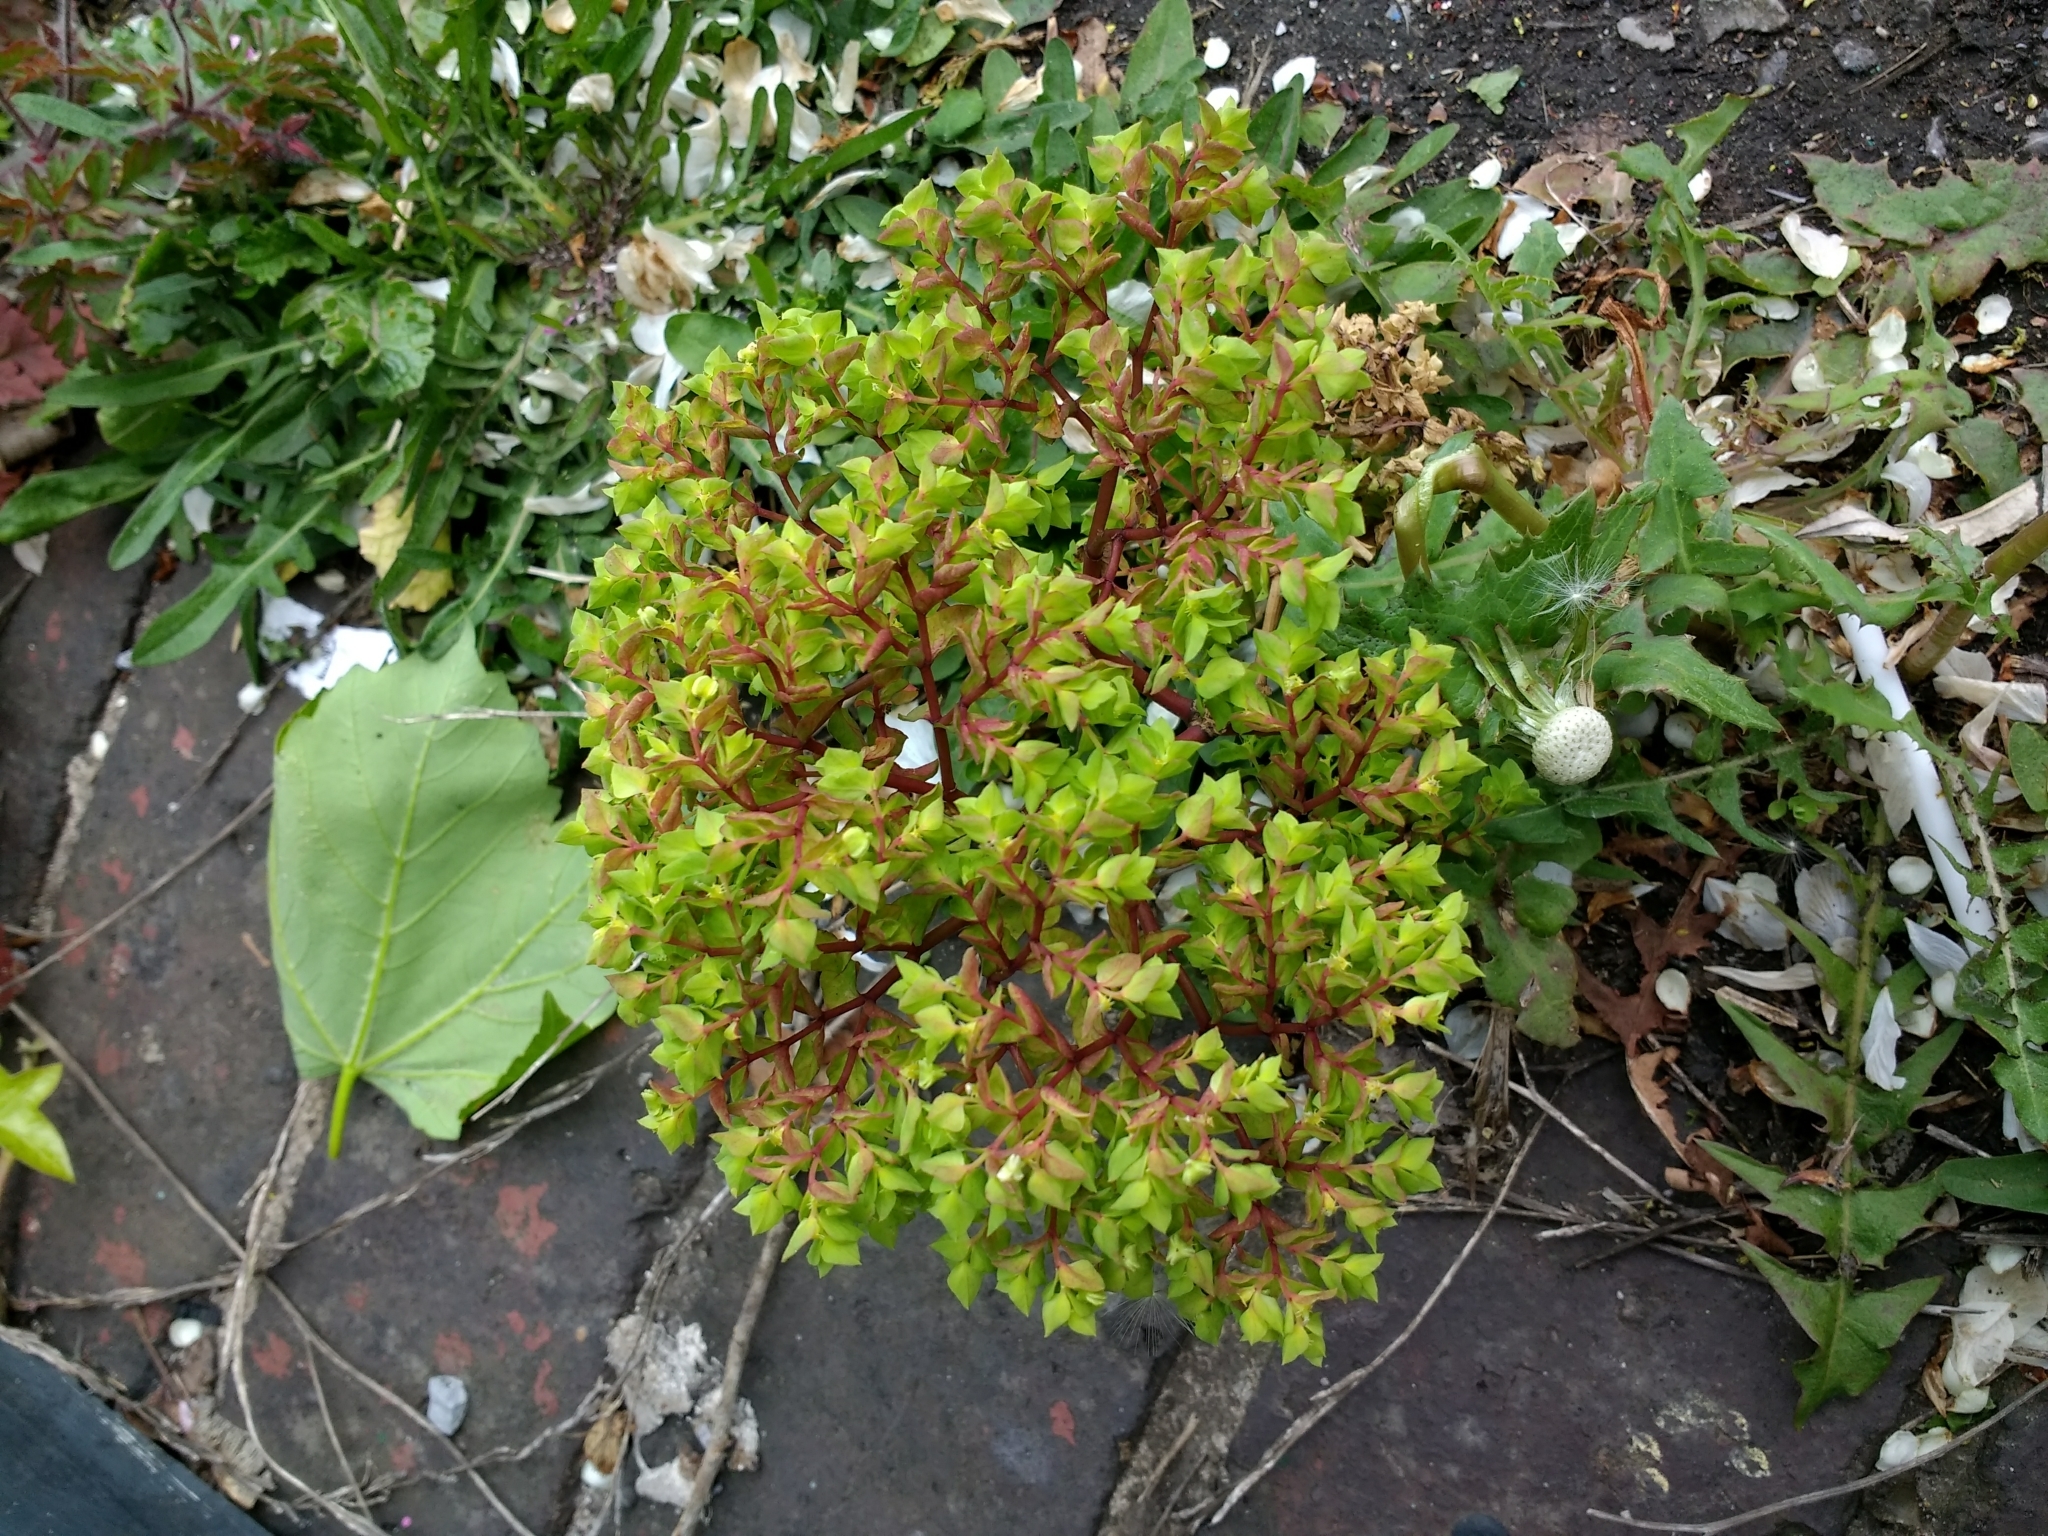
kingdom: Plantae
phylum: Tracheophyta
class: Magnoliopsida
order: Malpighiales
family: Euphorbiaceae
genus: Euphorbia
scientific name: Euphorbia peplus
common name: Petty spurge
